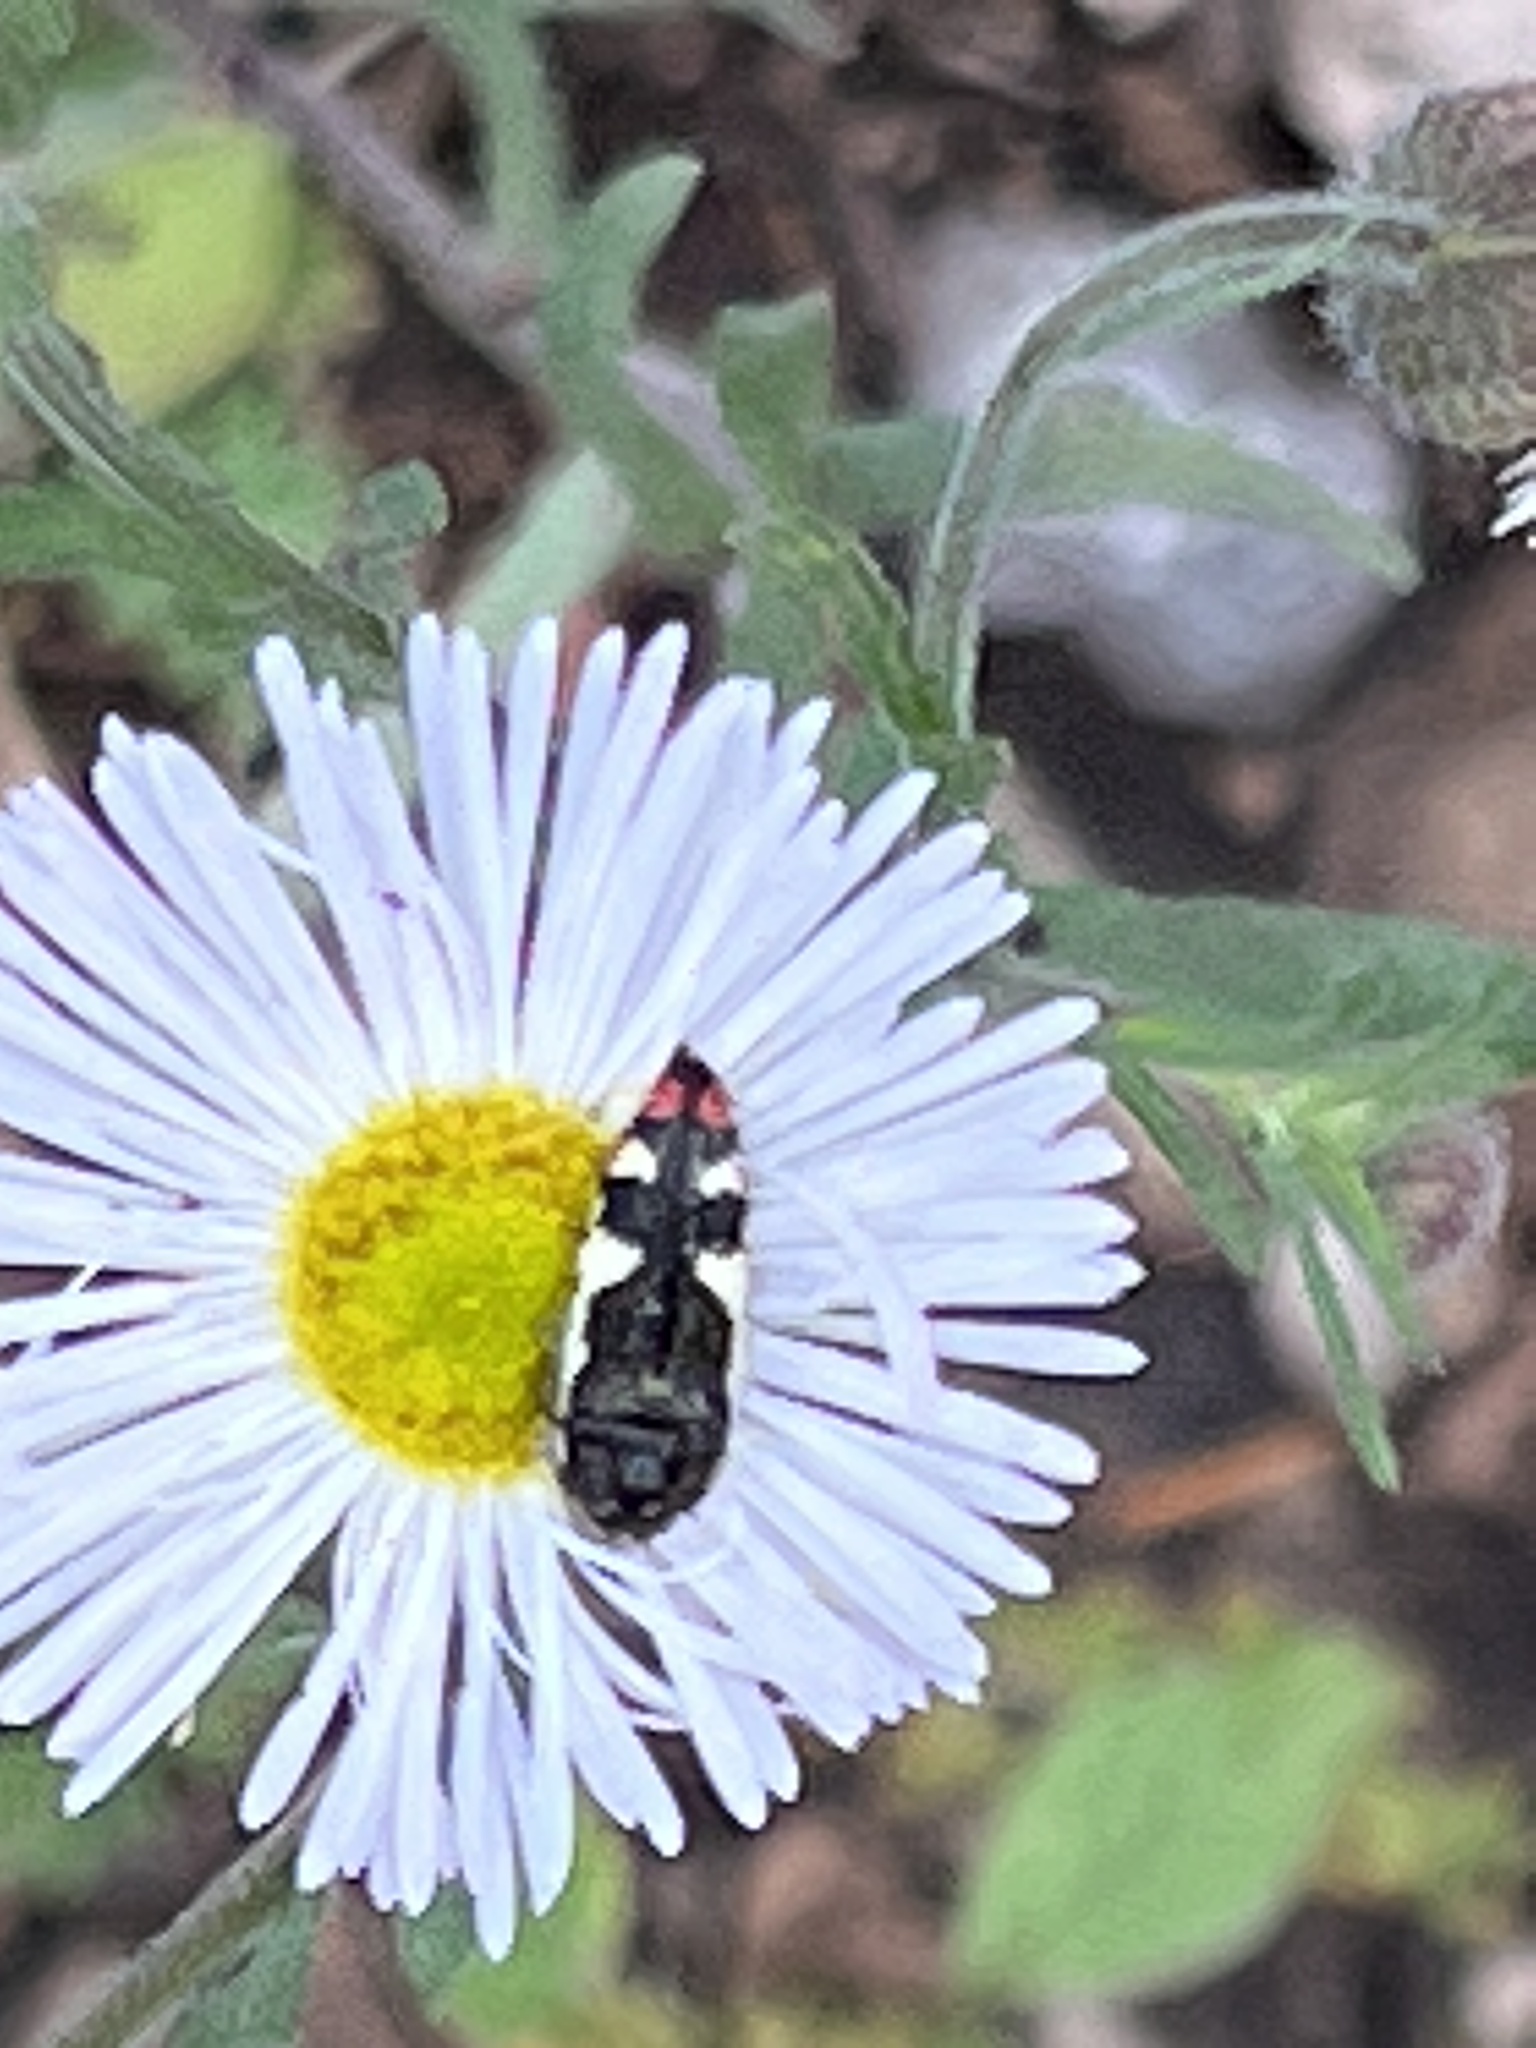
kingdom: Animalia
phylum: Arthropoda
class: Insecta
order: Coleoptera
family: Buprestidae
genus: Acmaeodera
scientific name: Acmaeodera amabilis
